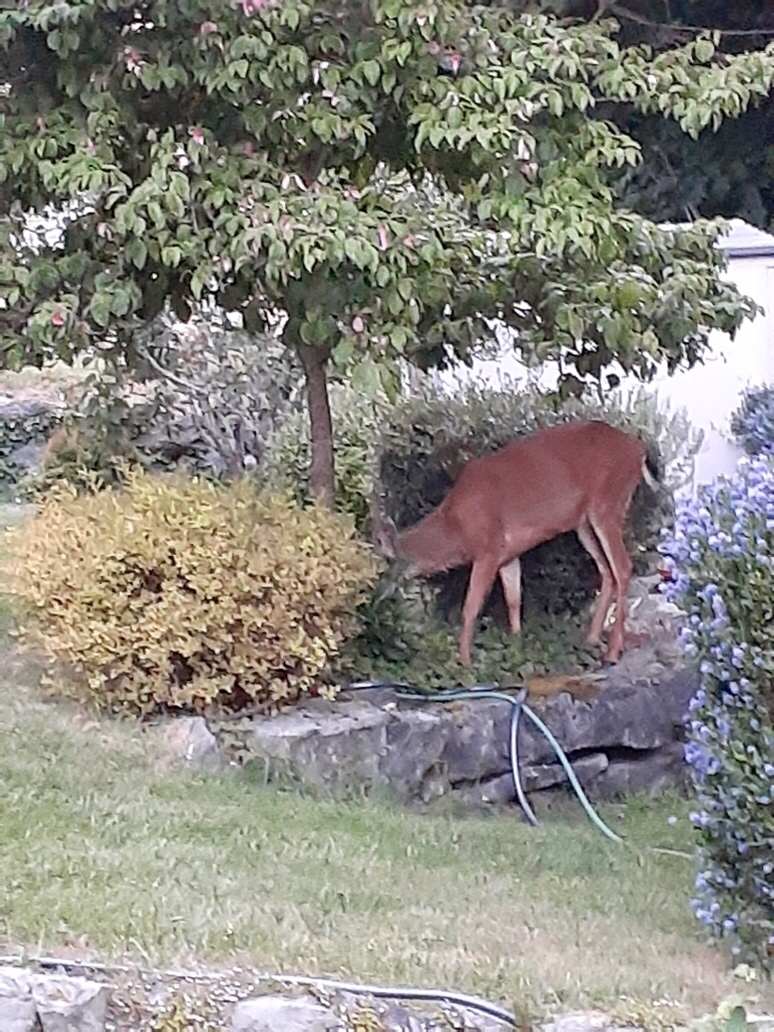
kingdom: Animalia
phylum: Chordata
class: Mammalia
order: Artiodactyla
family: Cervidae
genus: Odocoileus
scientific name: Odocoileus hemionus
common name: Mule deer
